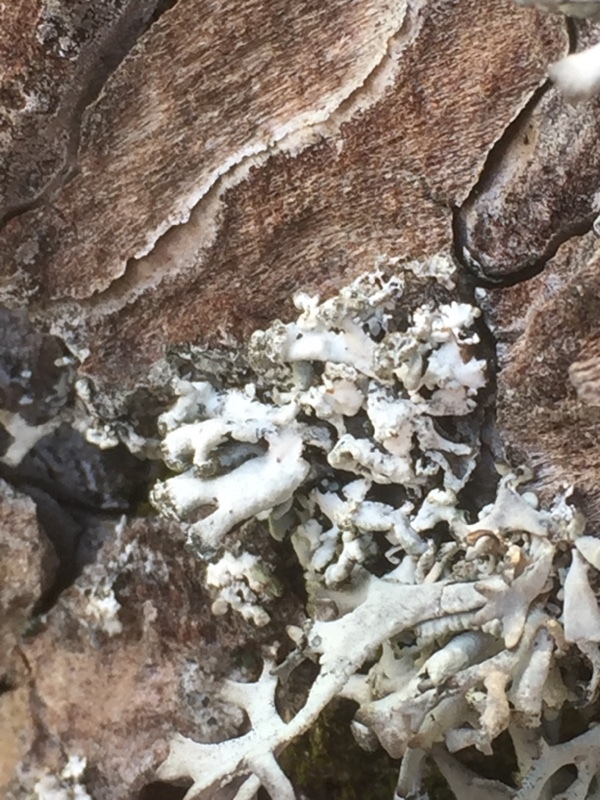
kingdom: Fungi
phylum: Ascomycota
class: Lecanoromycetes
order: Lecanorales
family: Parmeliaceae
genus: Hypogymnia
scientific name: Hypogymnia tubulosa
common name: Powder-headed tube lichen
